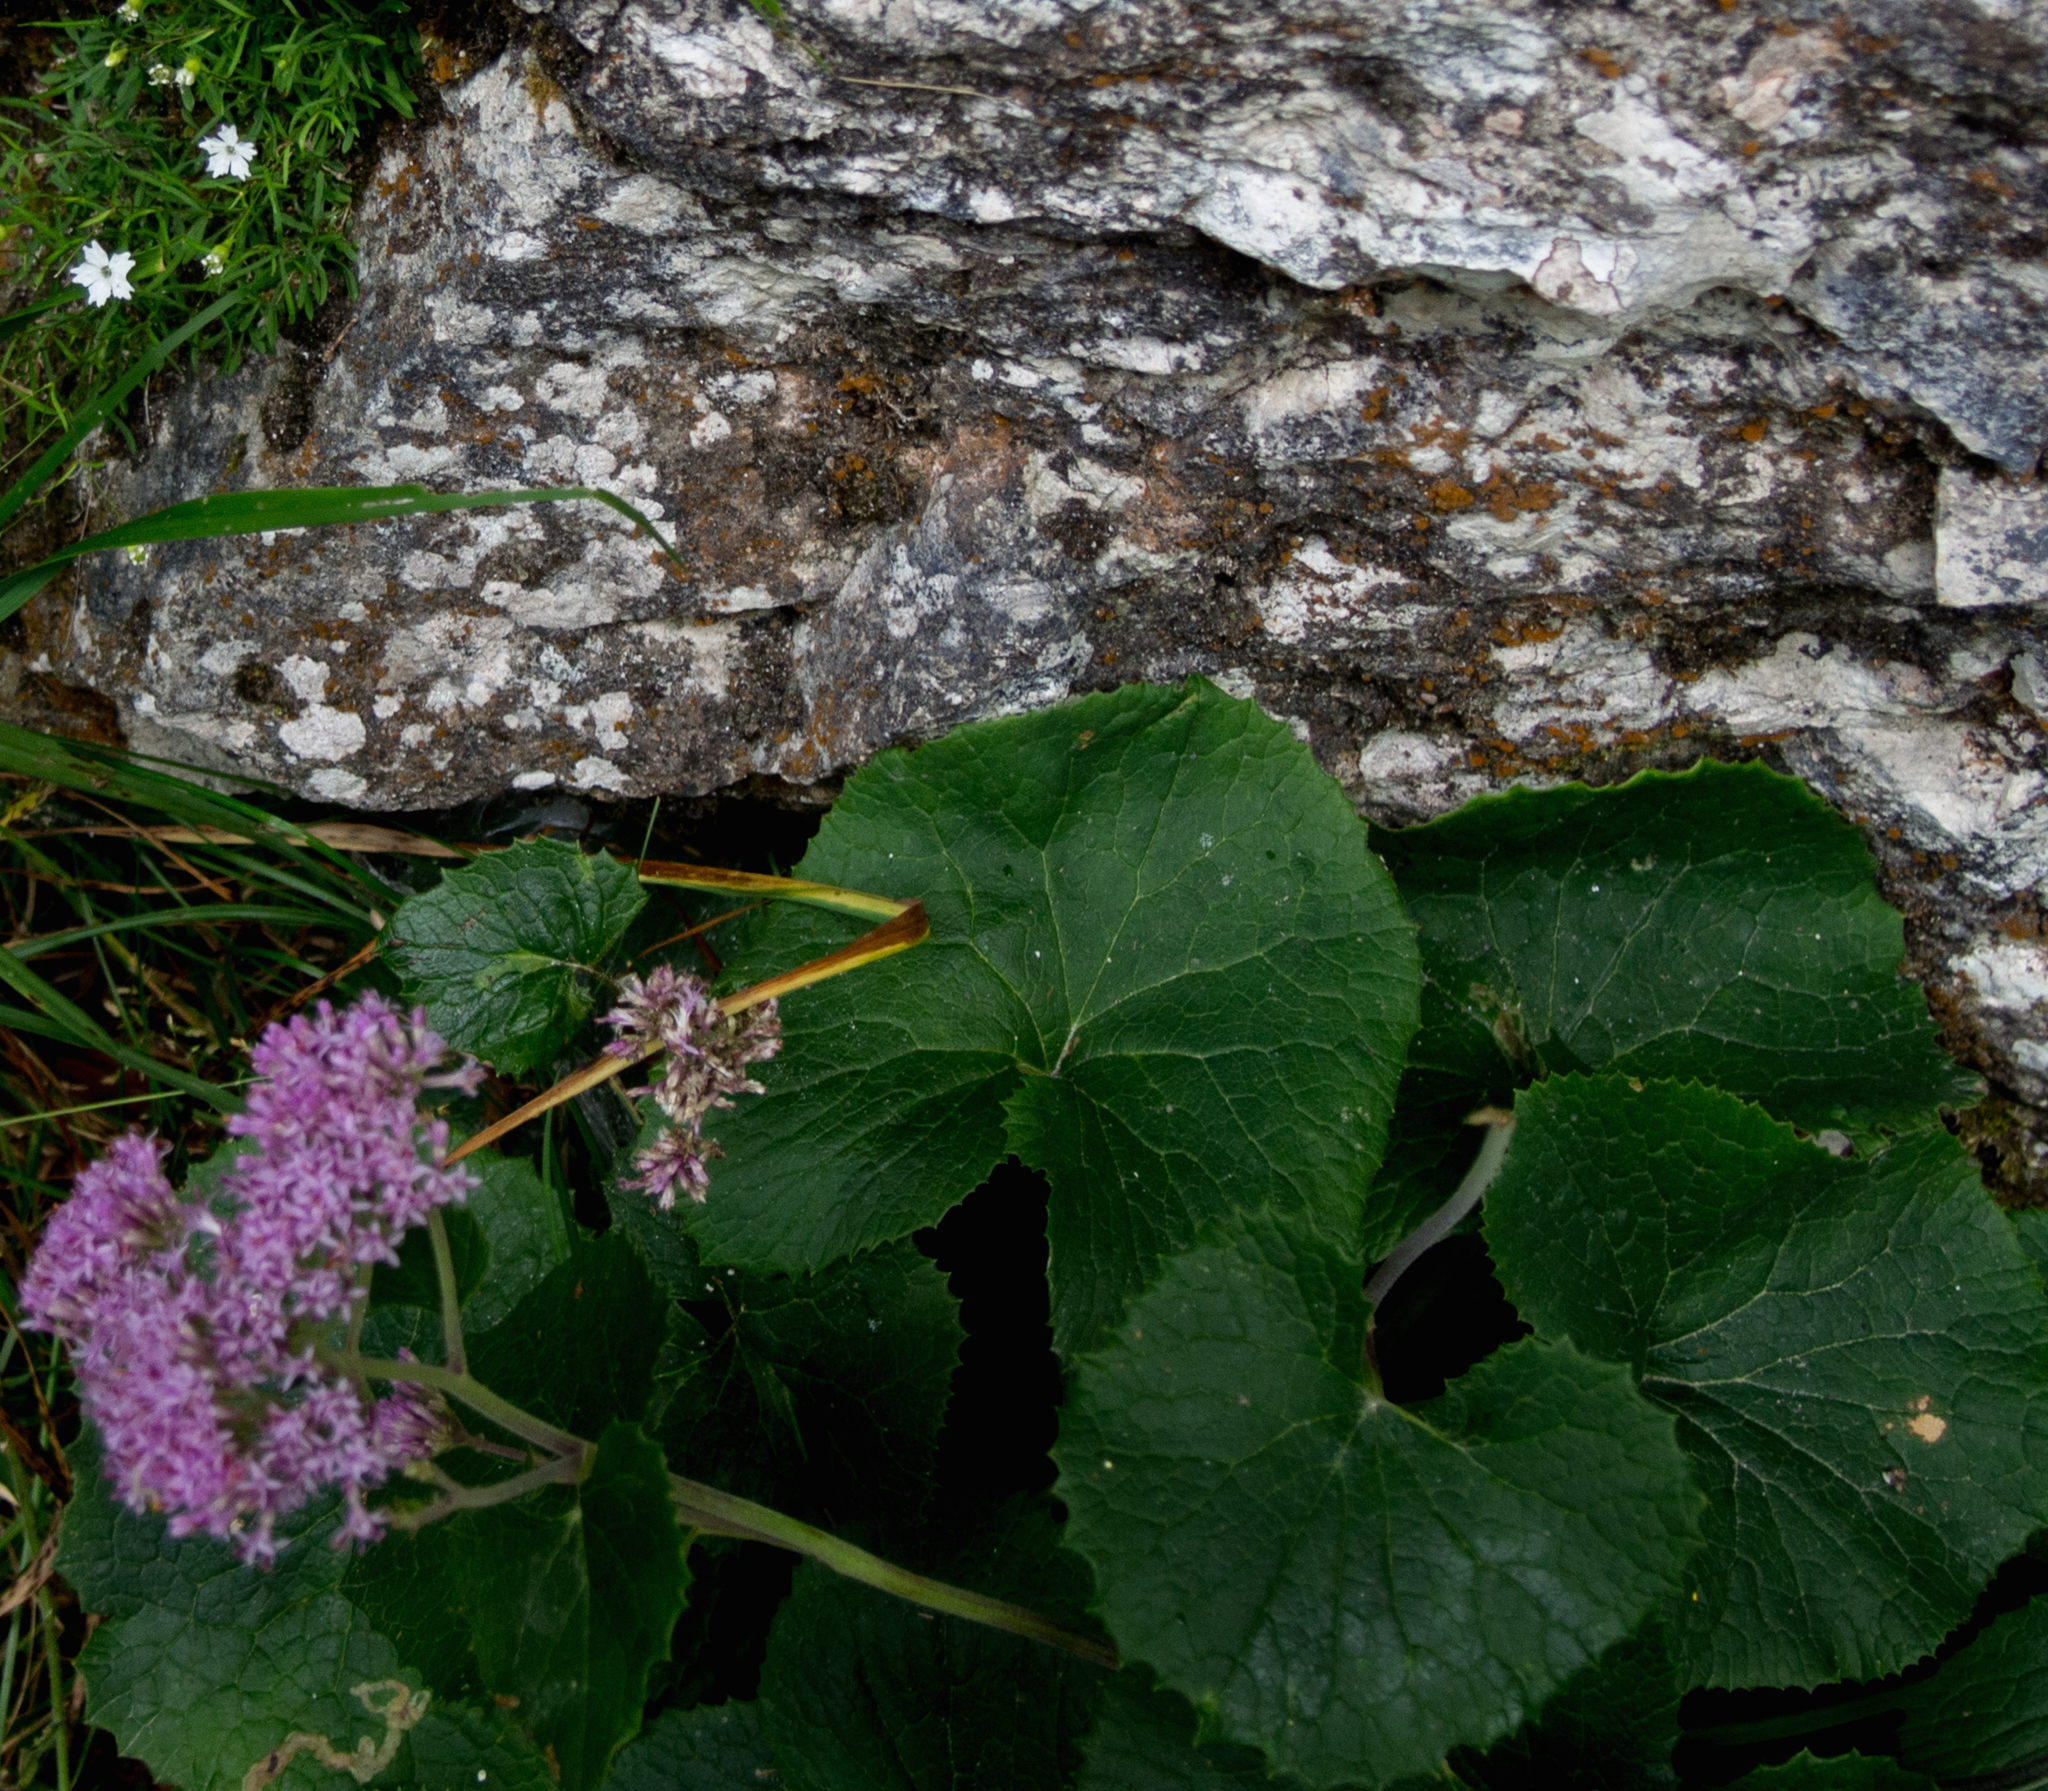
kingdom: Plantae
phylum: Tracheophyta
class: Magnoliopsida
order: Asterales
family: Asteraceae
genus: Adenostyles
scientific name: Adenostyles alpina
